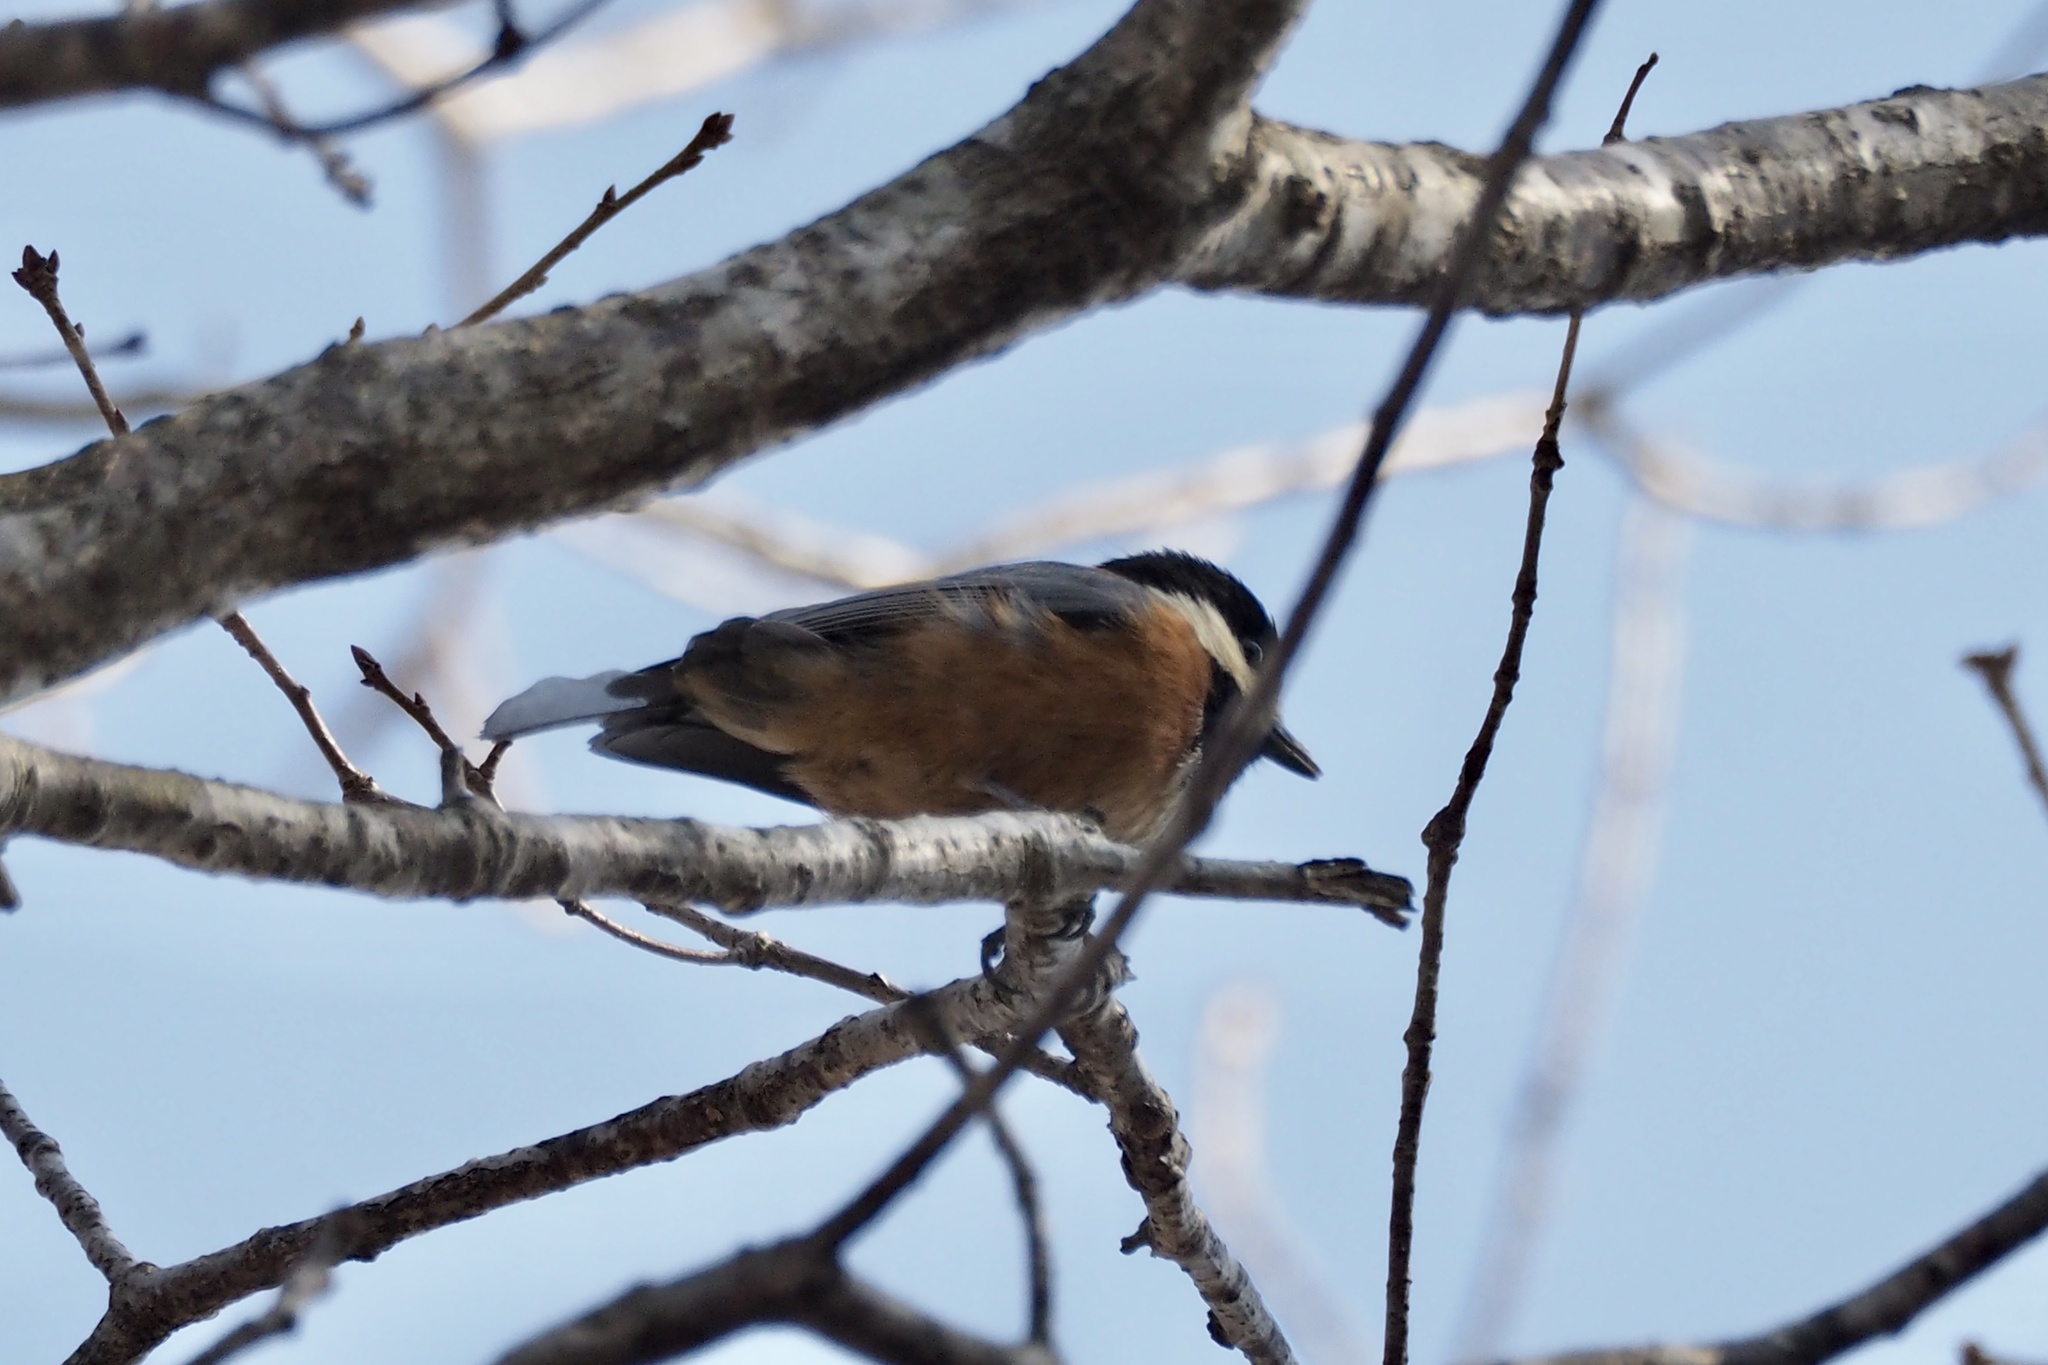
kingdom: Animalia
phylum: Chordata
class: Aves
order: Passeriformes
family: Paridae
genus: Poecile
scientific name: Poecile varius
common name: Varied tit
